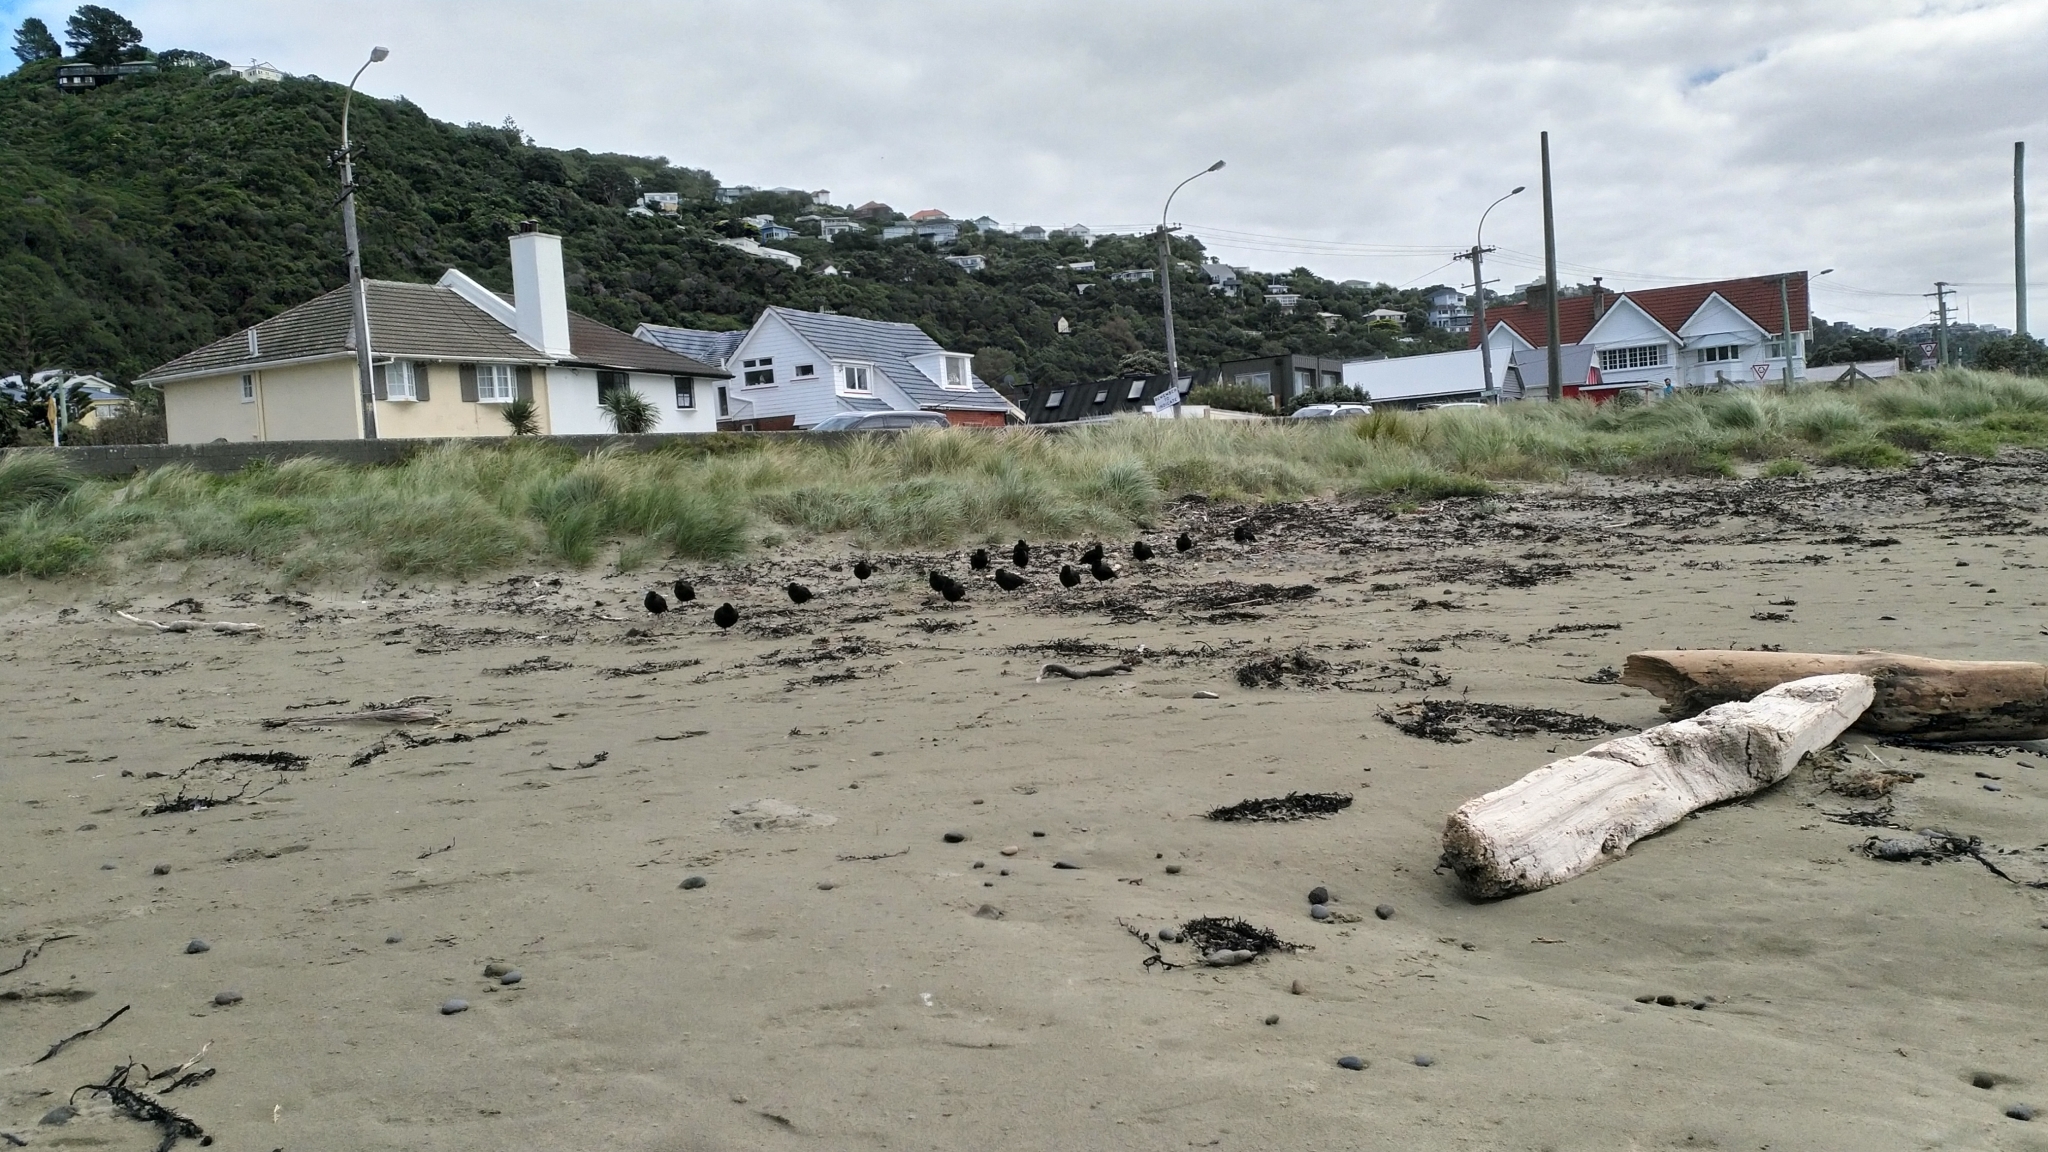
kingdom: Animalia
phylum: Chordata
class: Aves
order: Charadriiformes
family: Haematopodidae
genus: Haematopus
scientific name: Haematopus unicolor
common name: Variable oystercatcher
